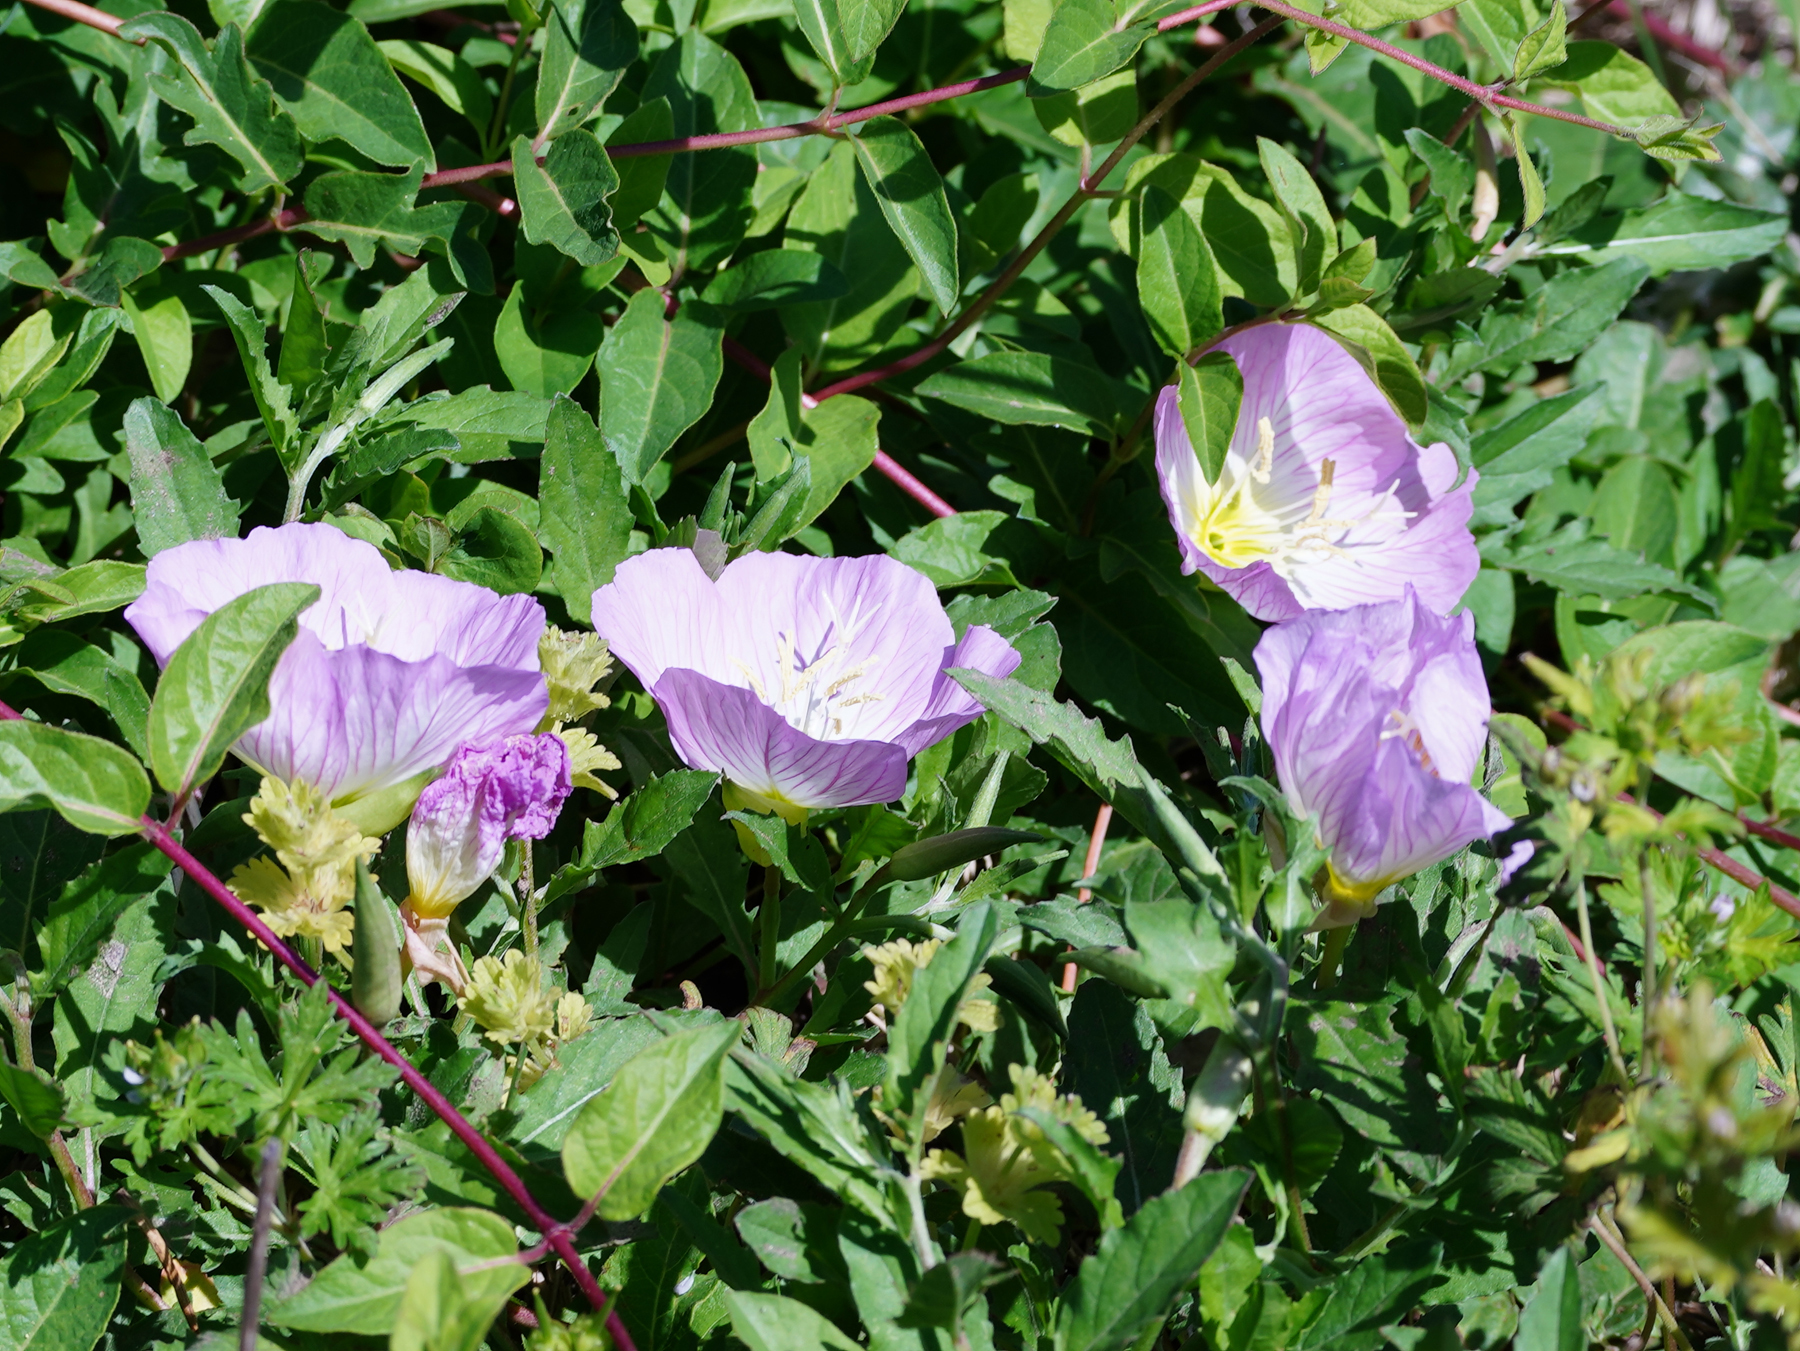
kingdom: Plantae
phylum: Tracheophyta
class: Magnoliopsida
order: Myrtales
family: Onagraceae
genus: Oenothera
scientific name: Oenothera speciosa
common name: White evening-primrose
